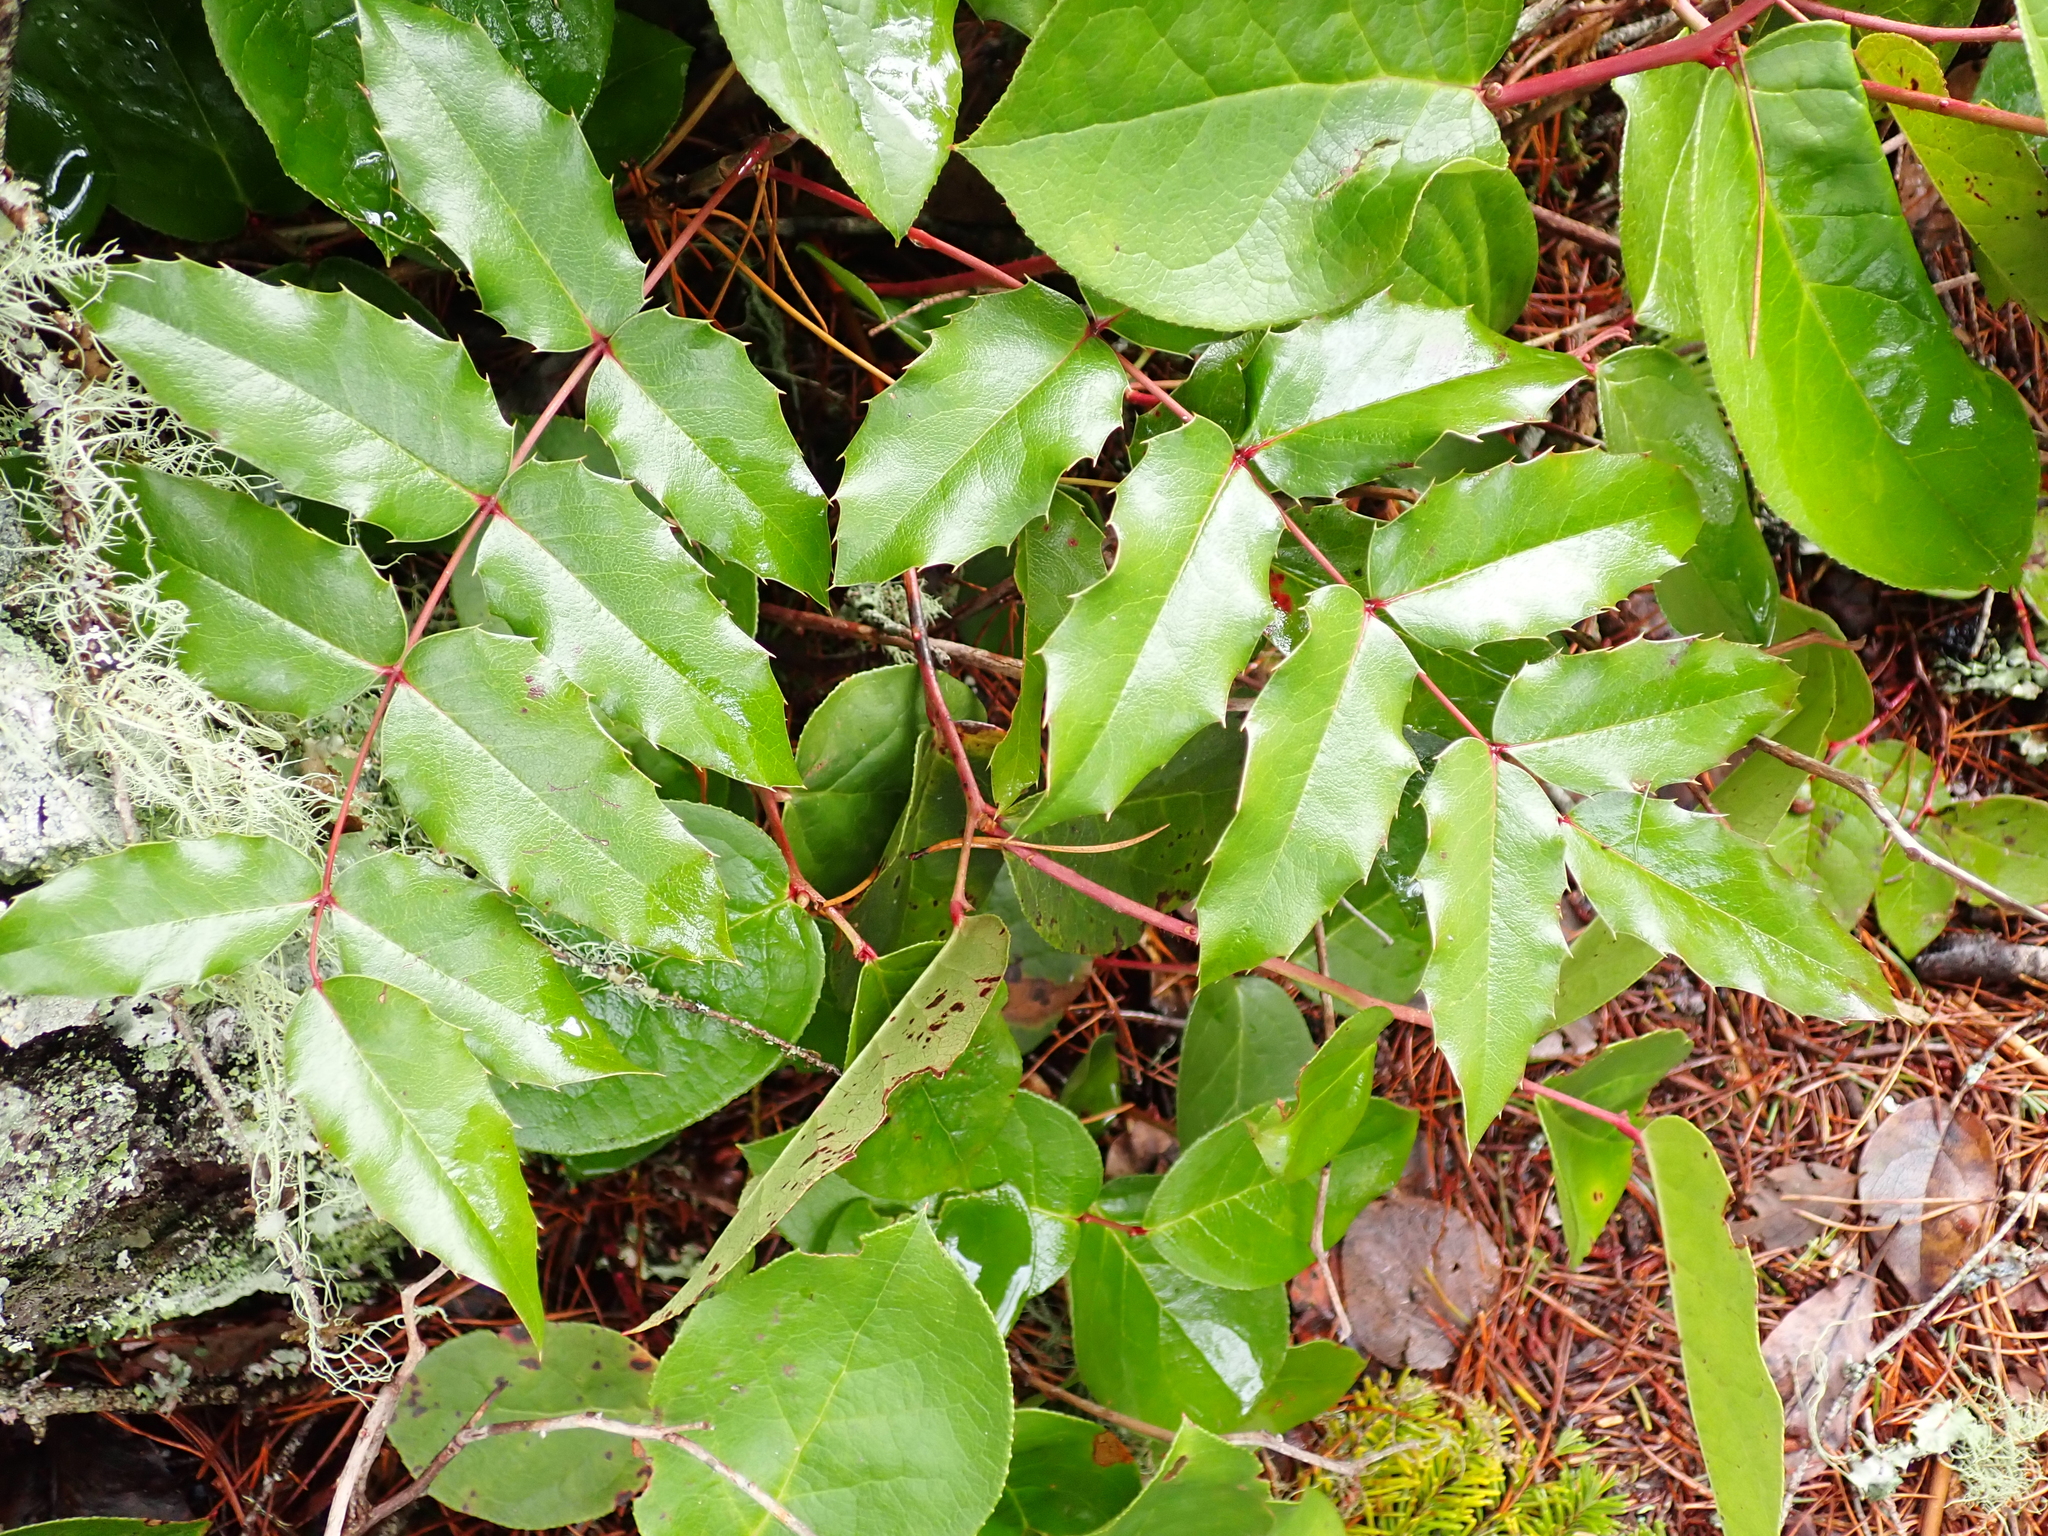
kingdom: Plantae
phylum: Tracheophyta
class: Magnoliopsida
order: Ranunculales
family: Berberidaceae
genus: Mahonia
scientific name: Mahonia aquifolium
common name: Oregon-grape
